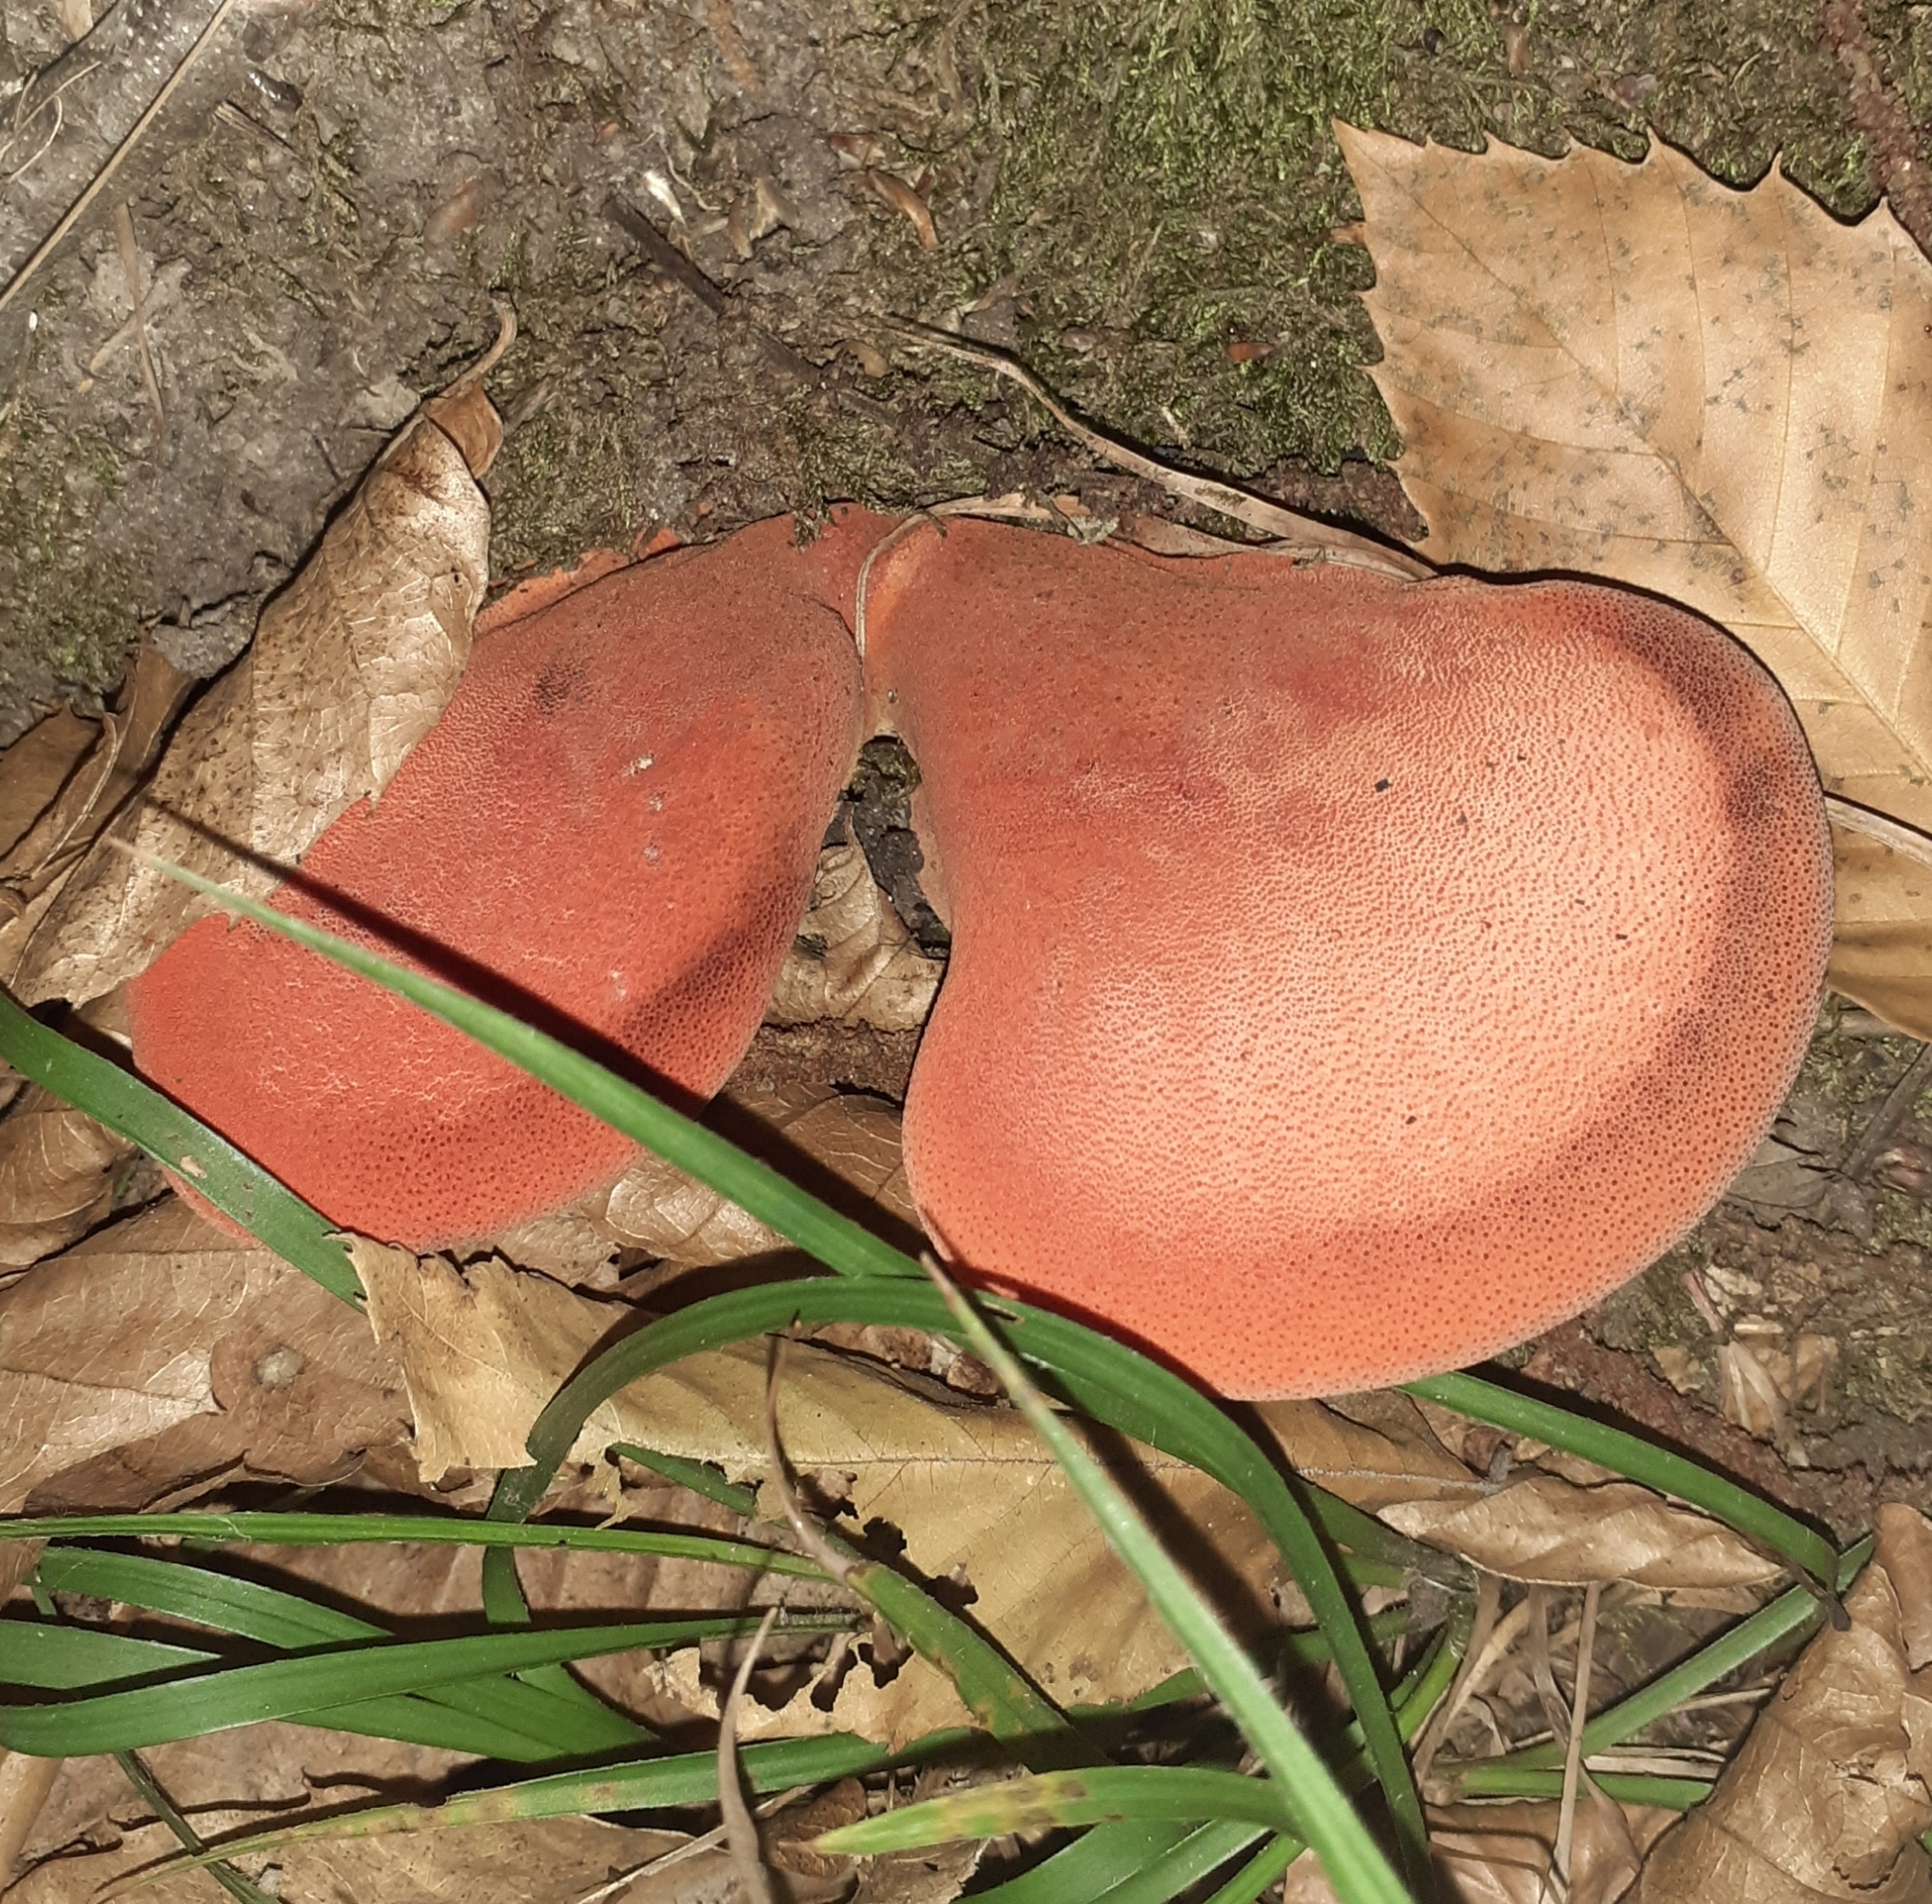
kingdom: Fungi
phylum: Basidiomycota
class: Agaricomycetes
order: Agaricales
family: Fistulinaceae
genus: Fistulina
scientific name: Fistulina hepatica
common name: Beef-steak fungus
